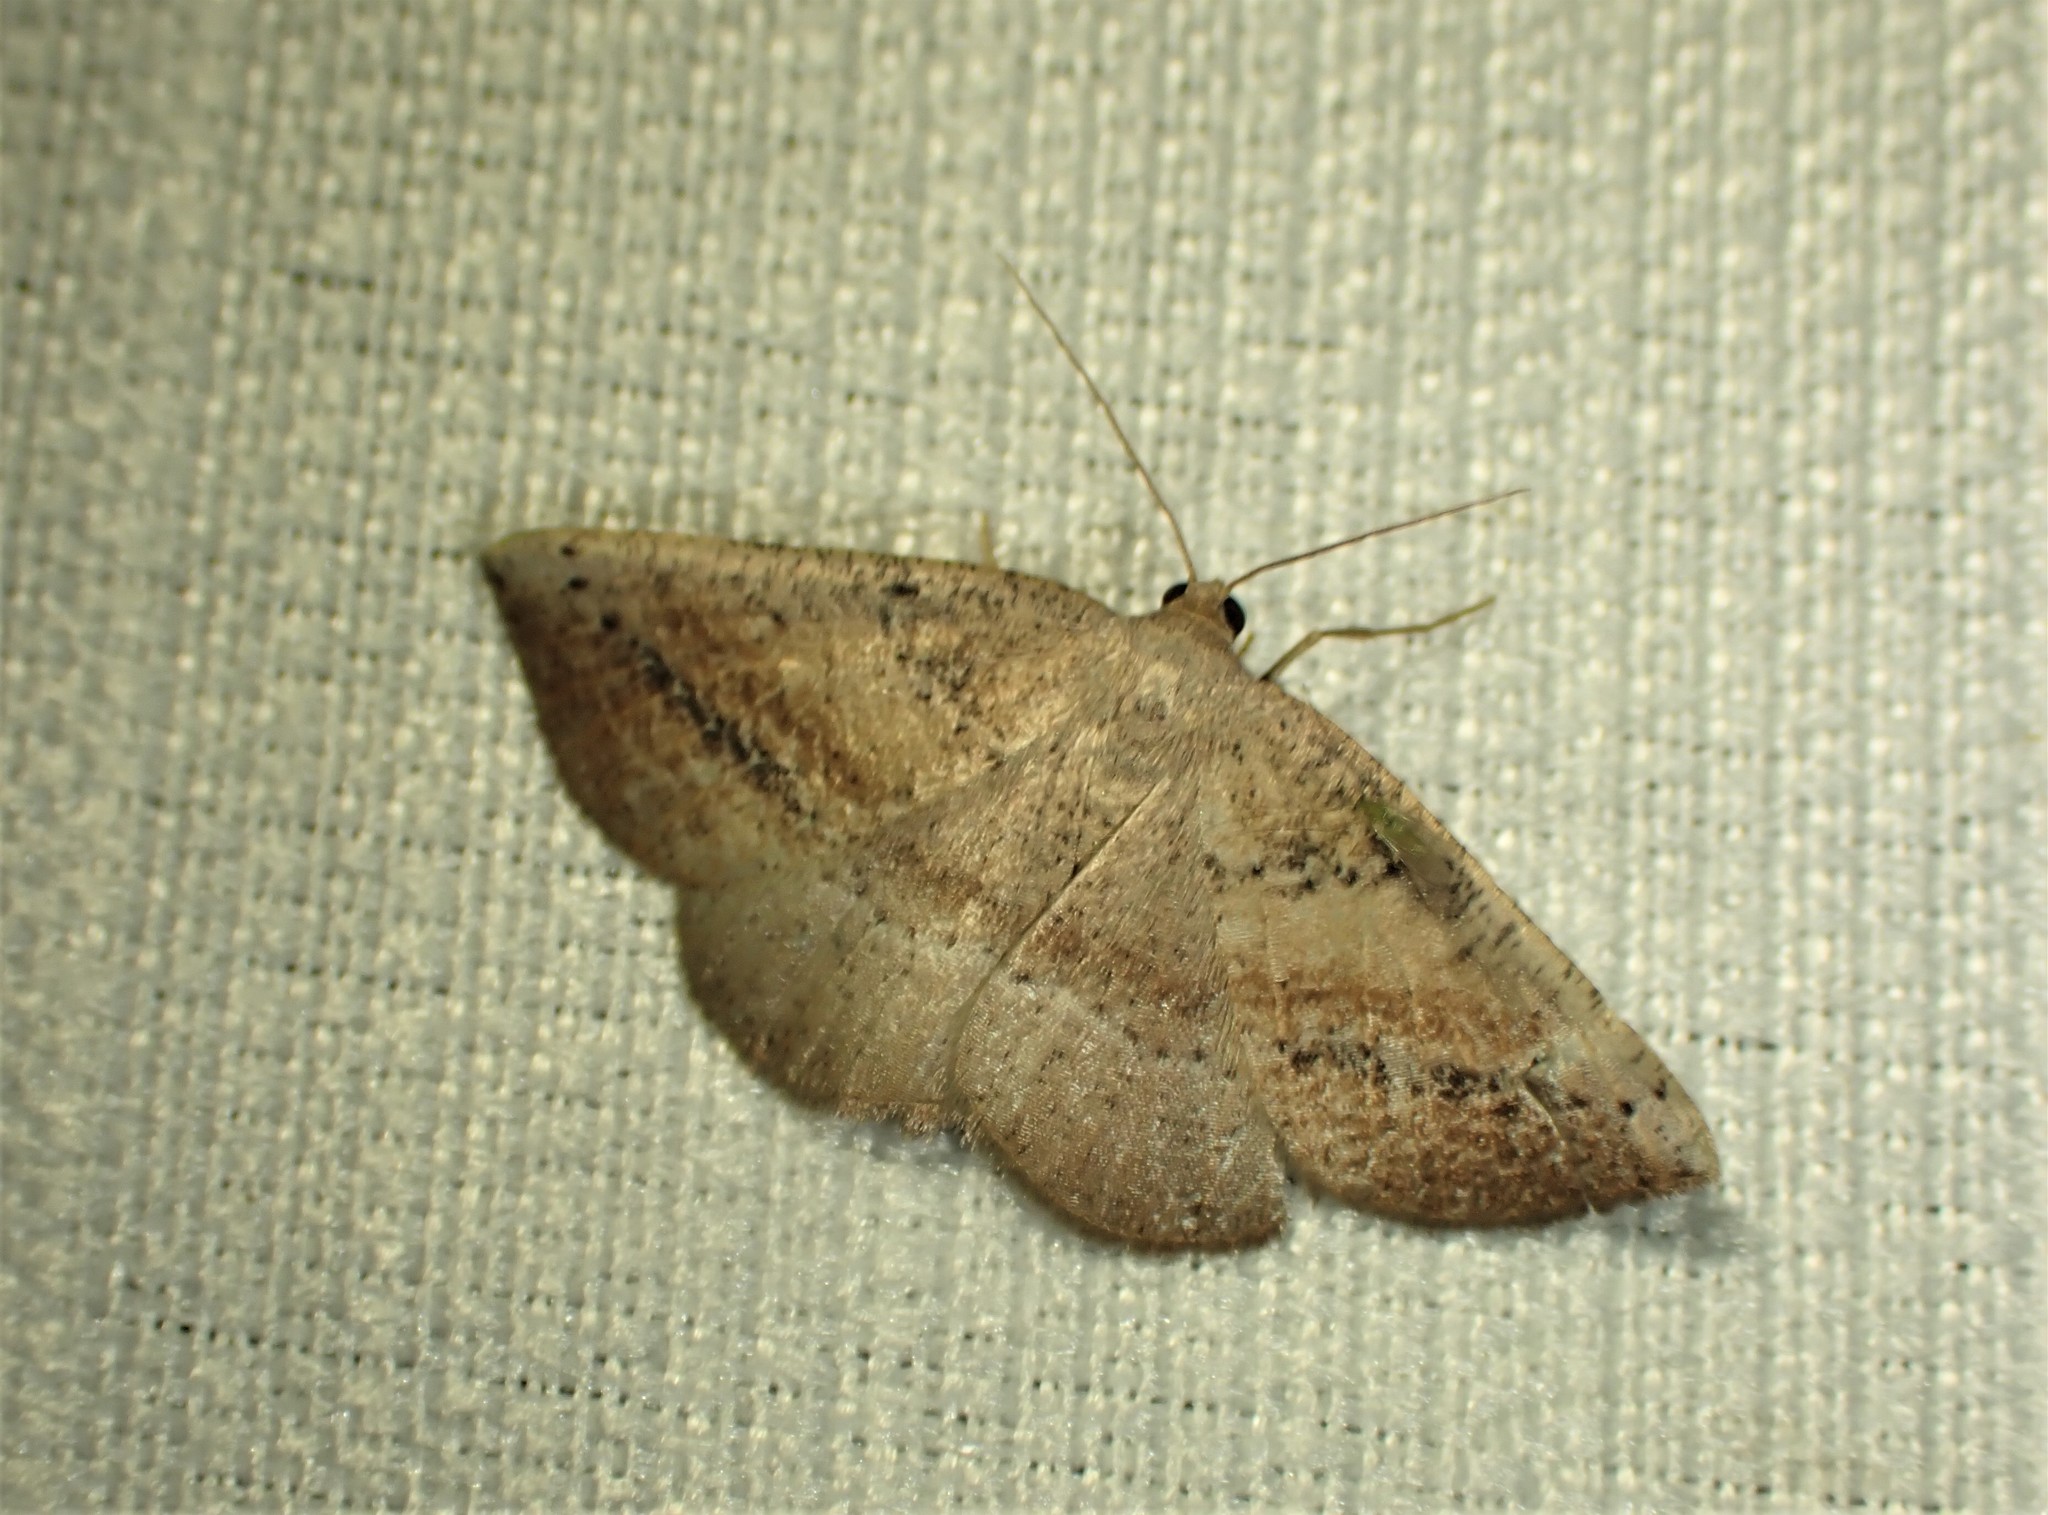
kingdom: Animalia
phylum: Arthropoda
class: Insecta
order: Lepidoptera
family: Geometridae
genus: Tacparia
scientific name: Tacparia atropunctata
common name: Northern pale alder
